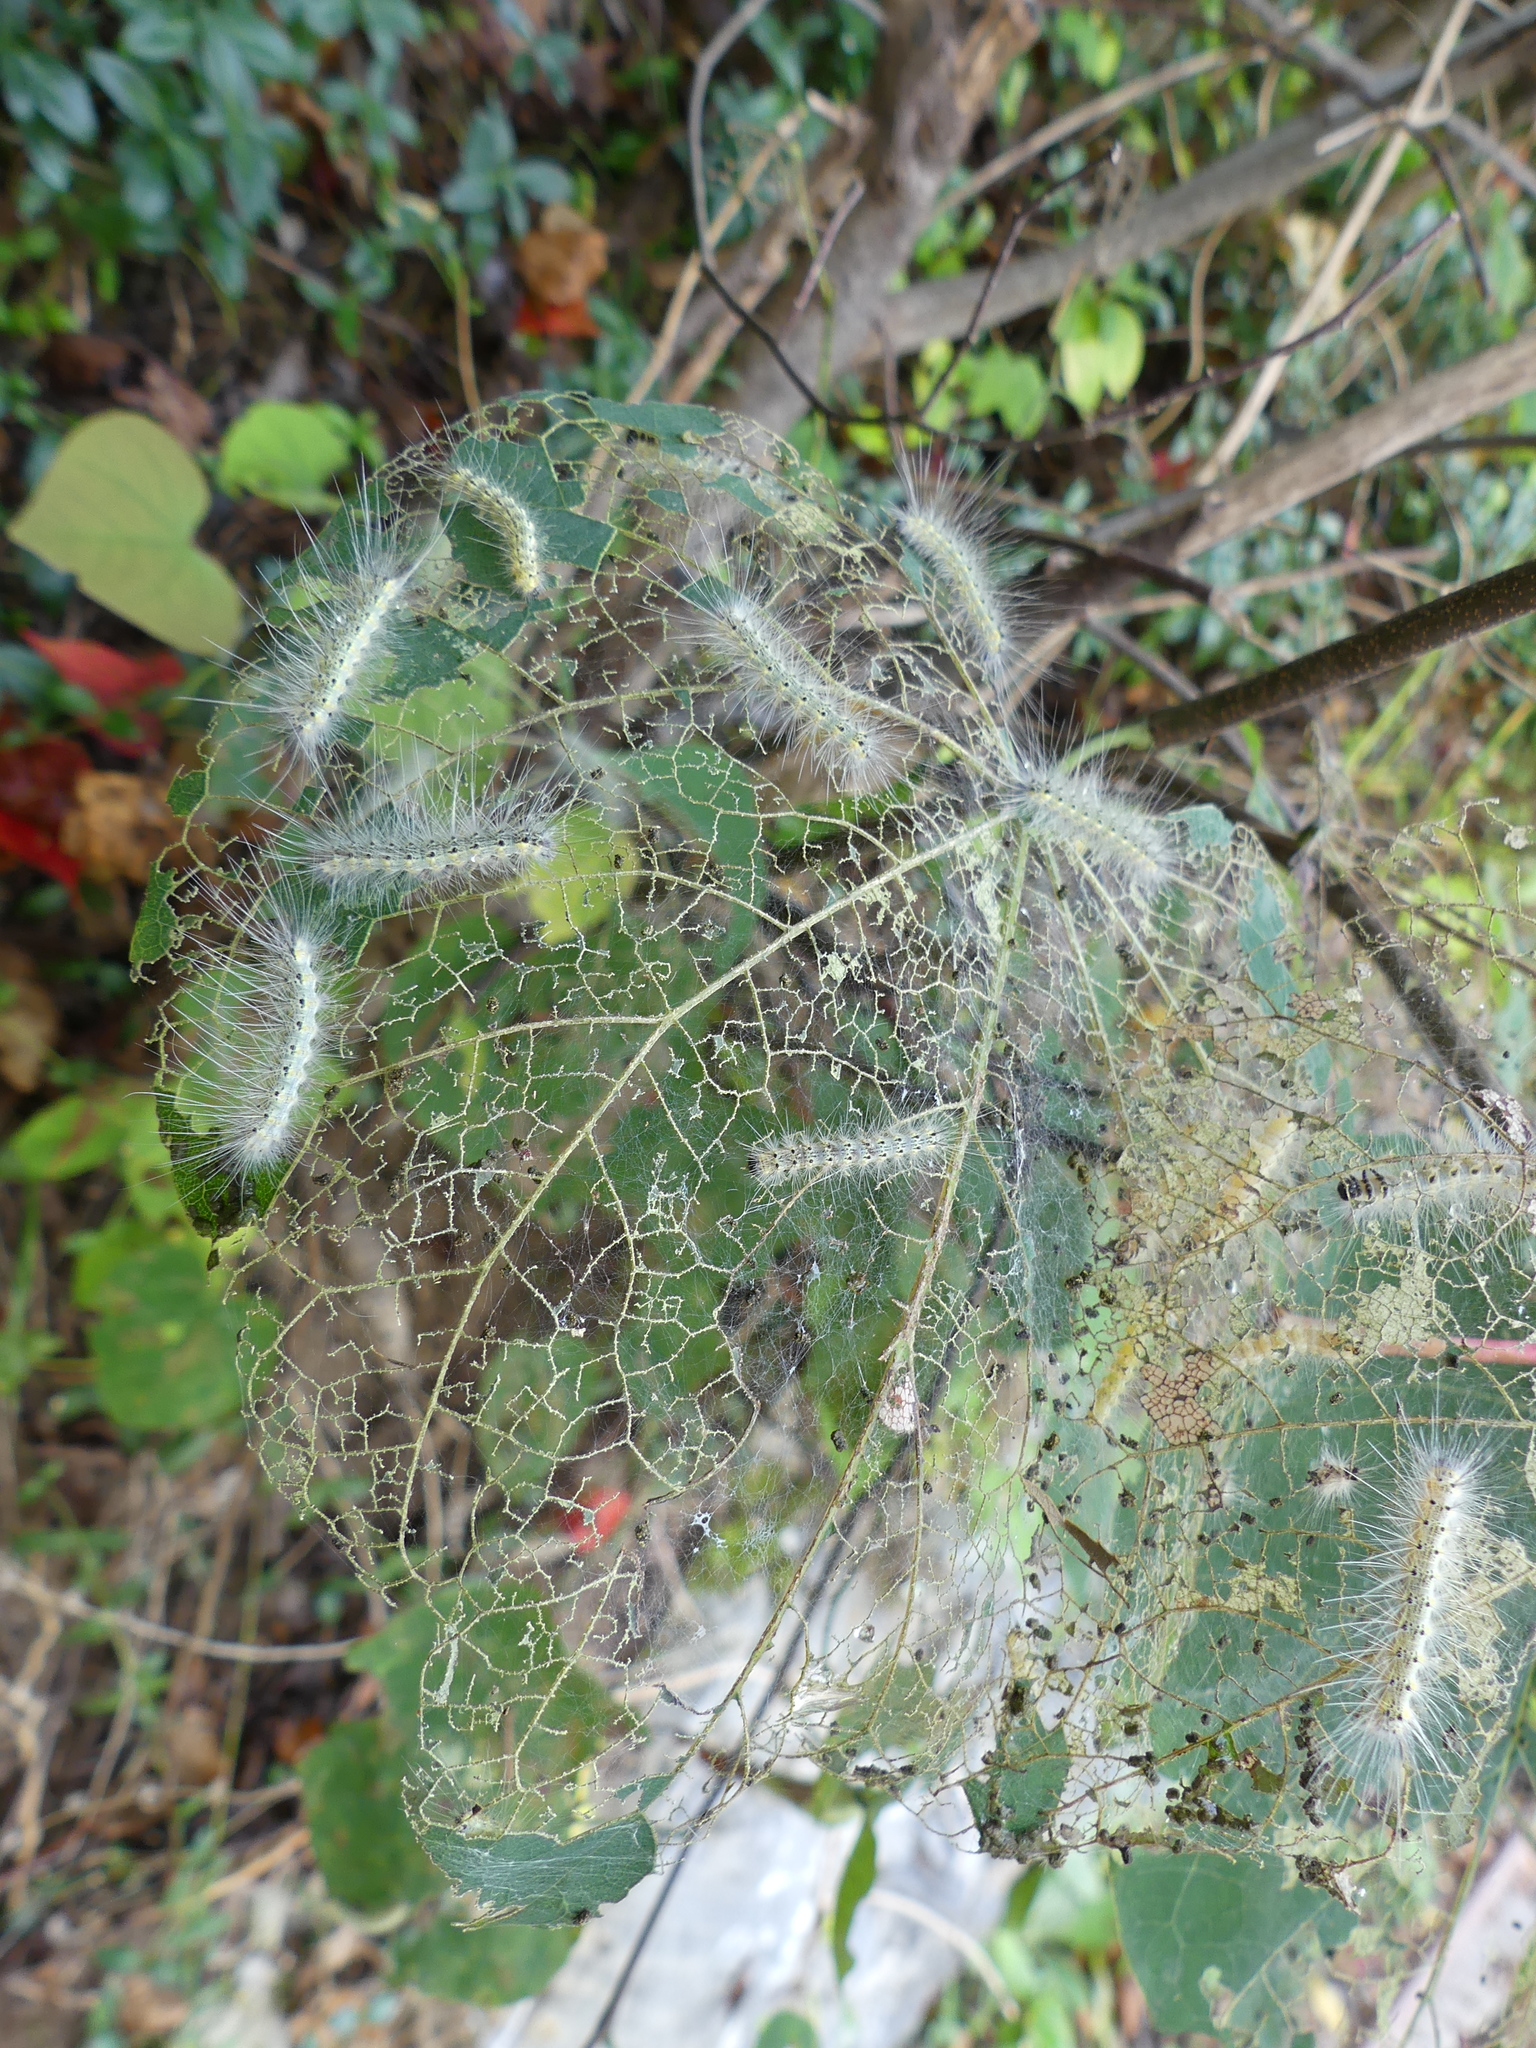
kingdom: Animalia
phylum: Arthropoda
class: Insecta
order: Lepidoptera
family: Erebidae
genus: Hyphantria
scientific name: Hyphantria cunea
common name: American white moth
